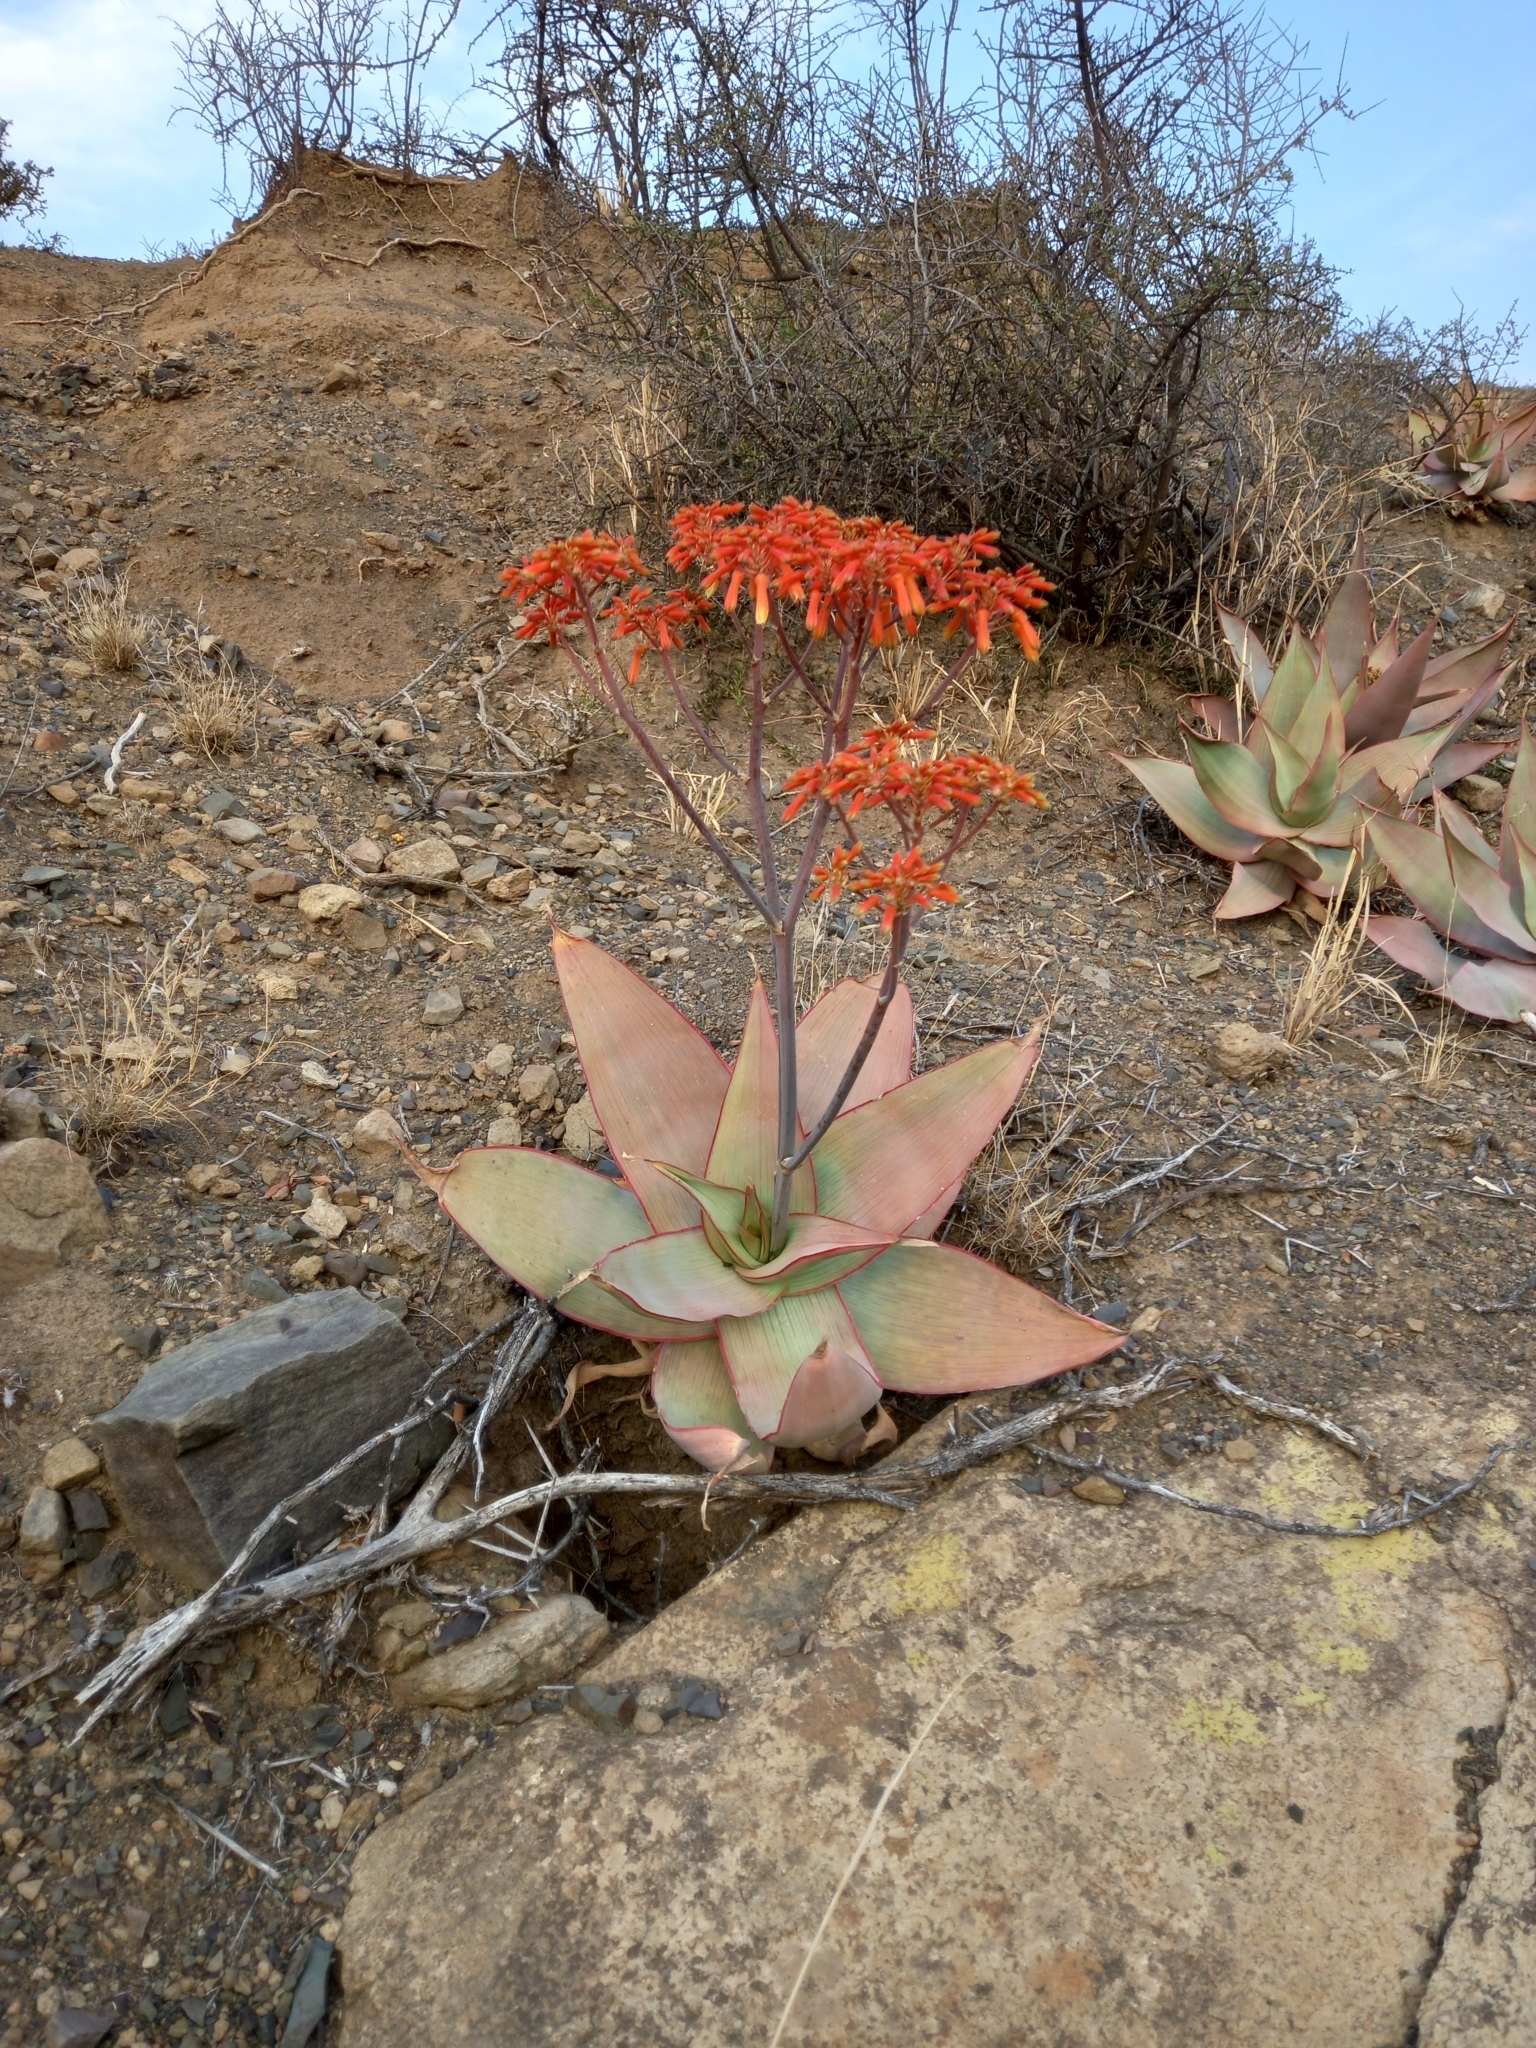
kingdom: Plantae
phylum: Tracheophyta
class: Liliopsida
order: Asparagales
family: Asphodelaceae
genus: Aloe
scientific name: Aloe striata
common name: Coral aloe
